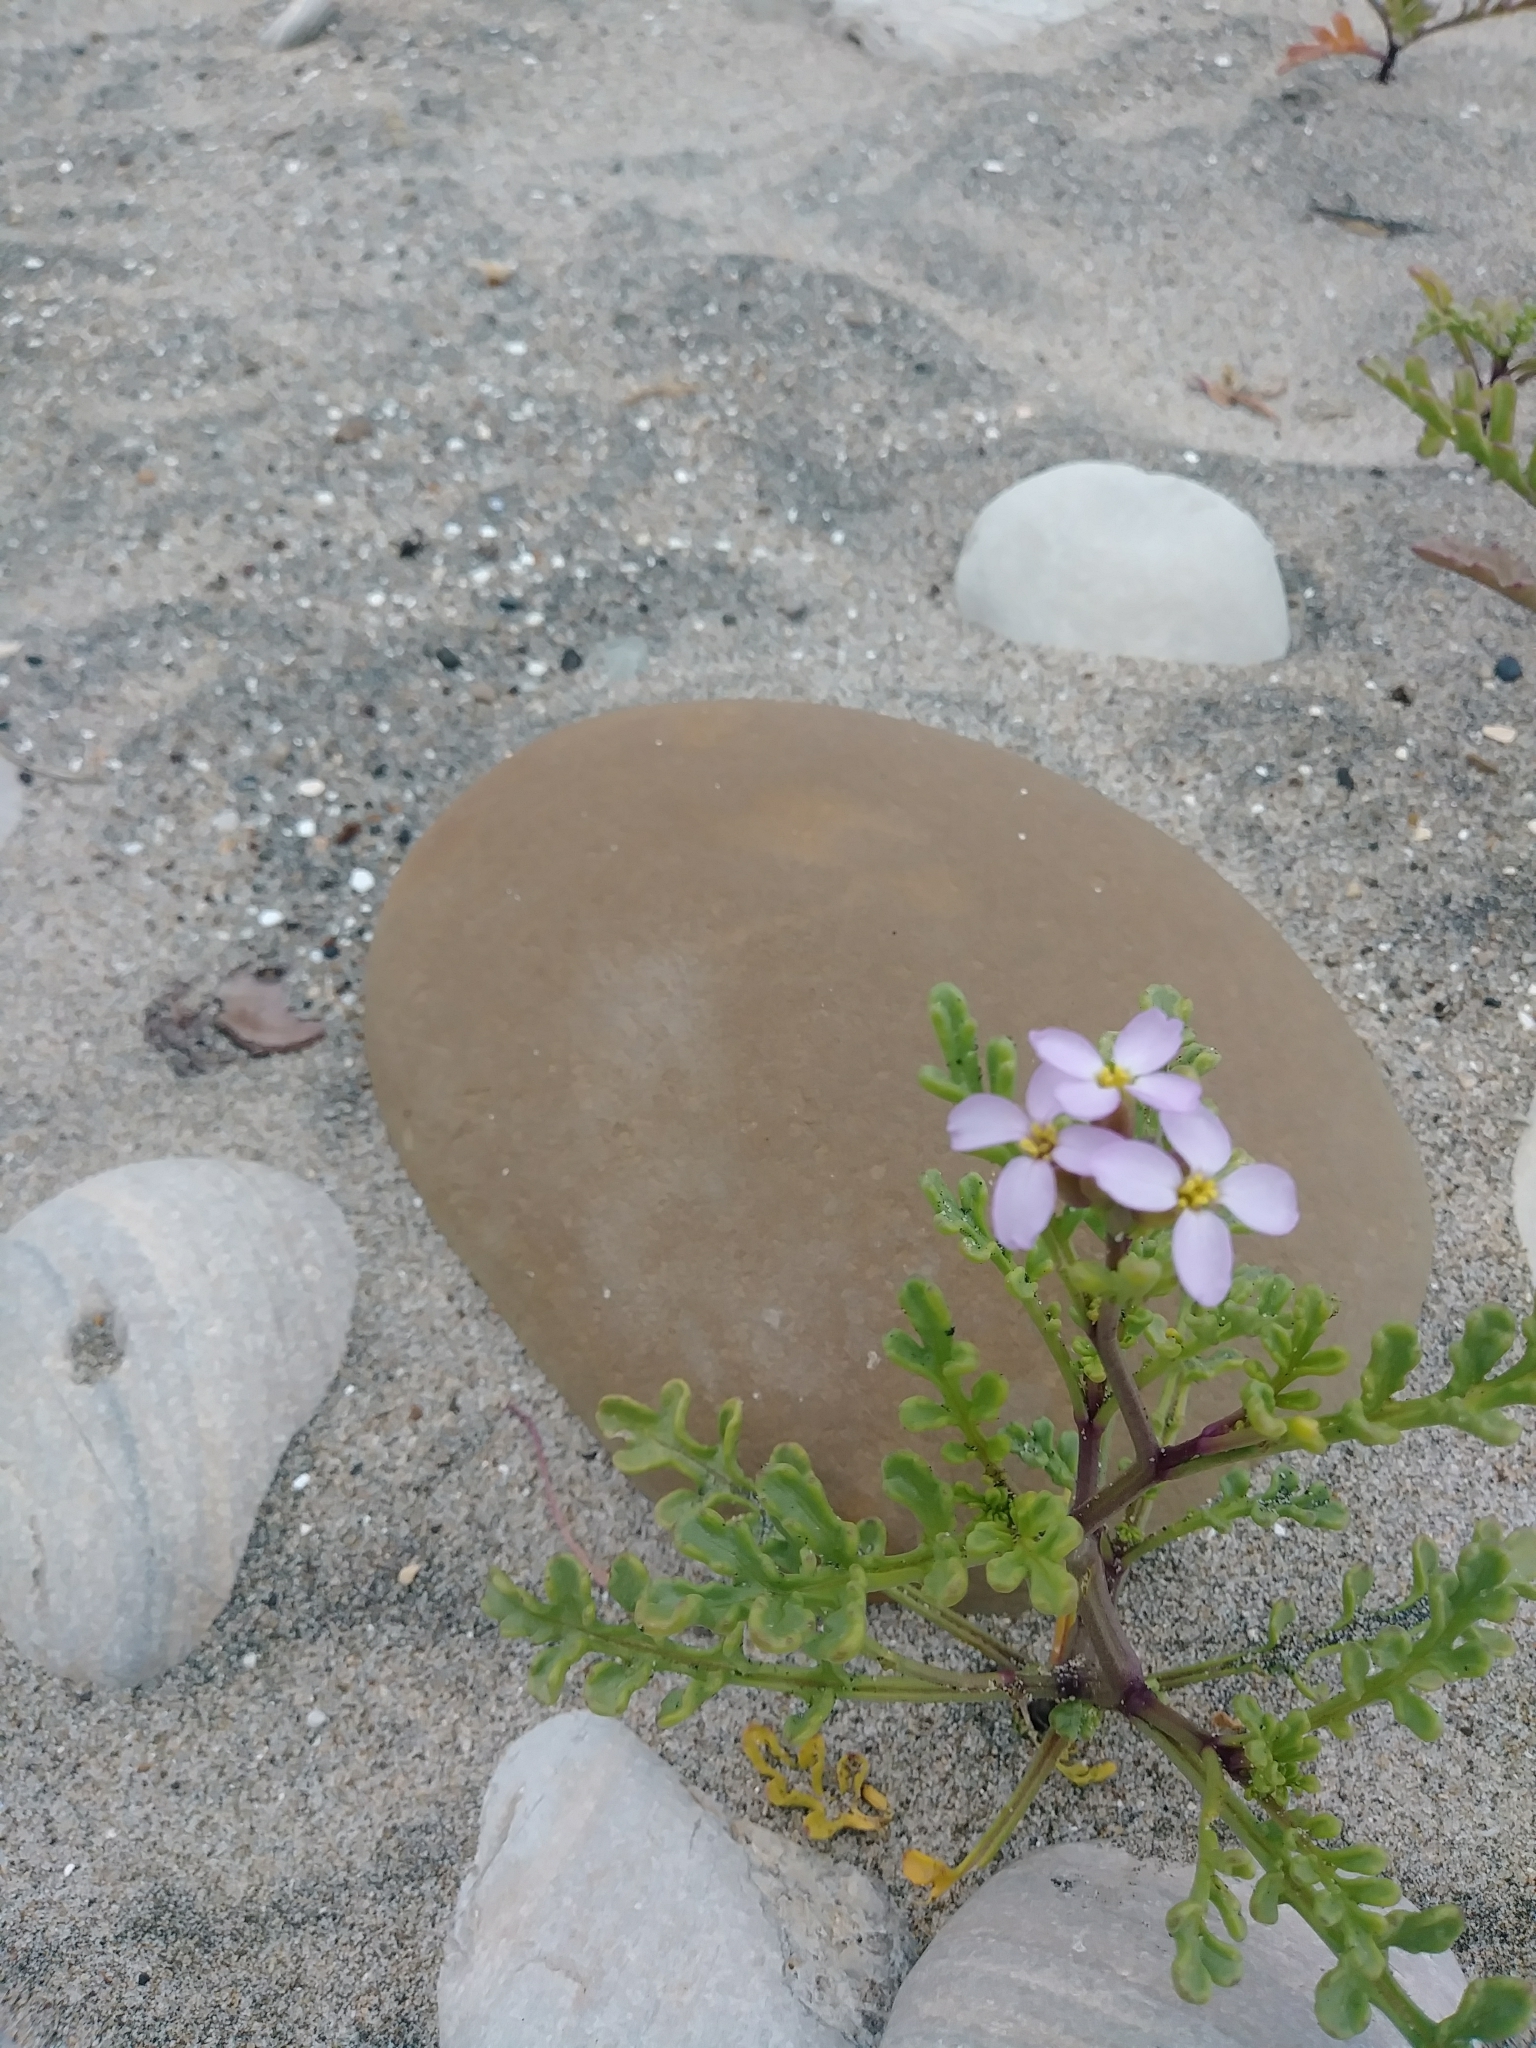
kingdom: Plantae
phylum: Tracheophyta
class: Magnoliopsida
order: Brassicales
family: Brassicaceae
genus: Cakile
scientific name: Cakile maritima
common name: Sea rocket
